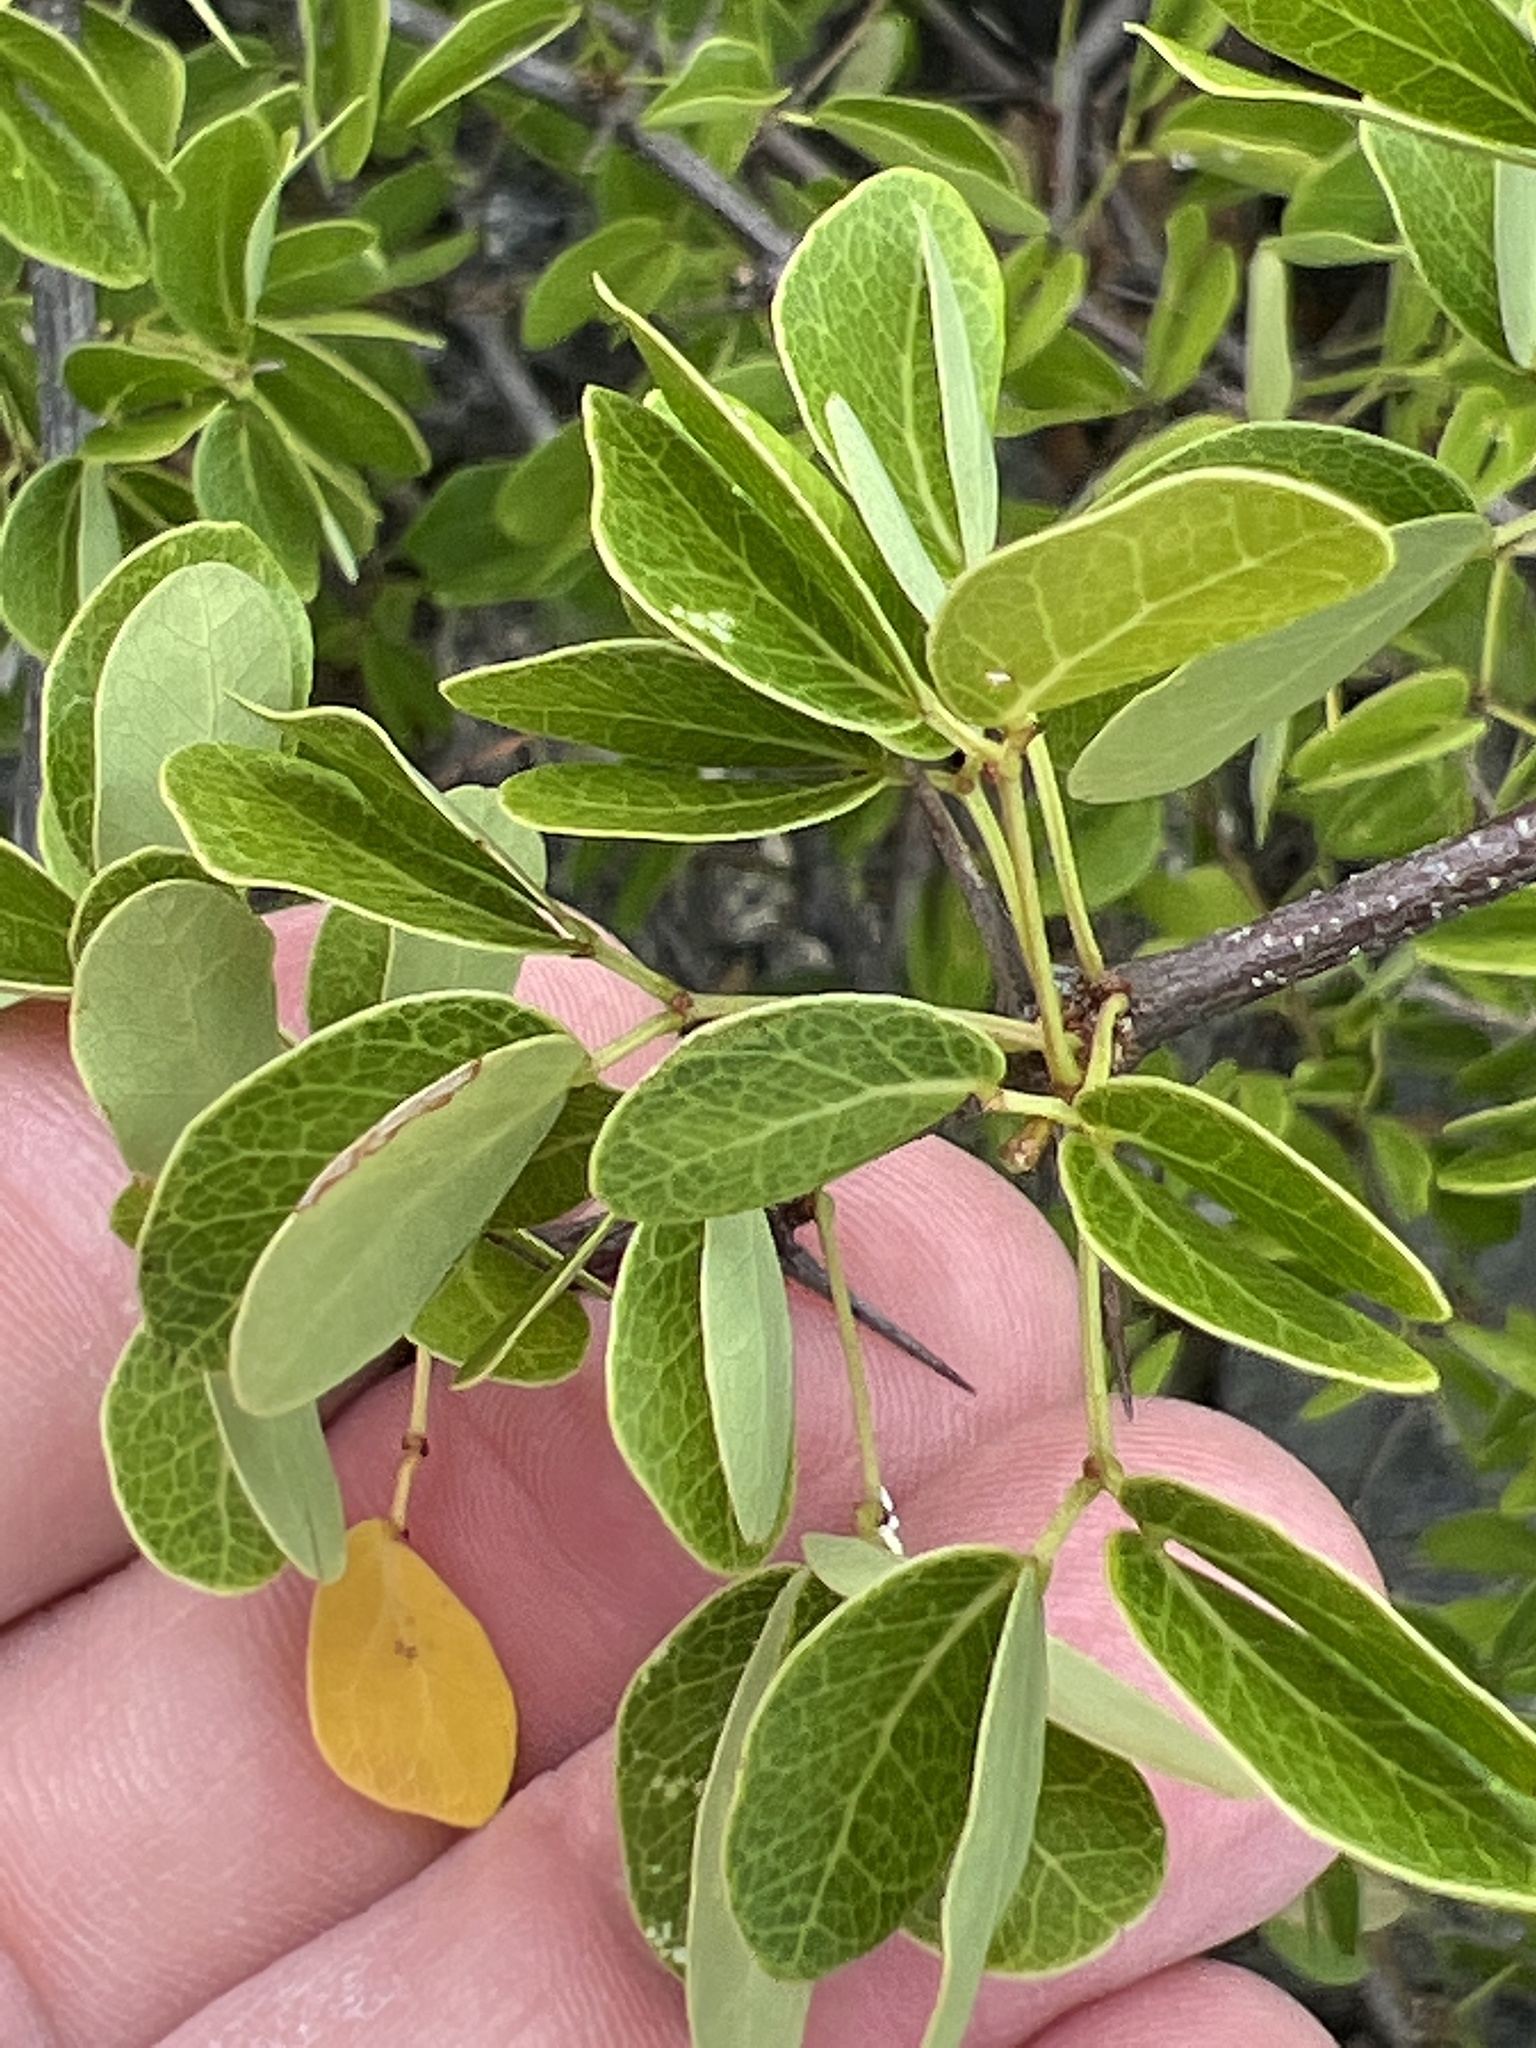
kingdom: Plantae
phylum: Tracheophyta
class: Magnoliopsida
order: Fabales
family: Fabaceae
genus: Pithecellobium
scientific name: Pithecellobium unguis-cati
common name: Cat's-claw
